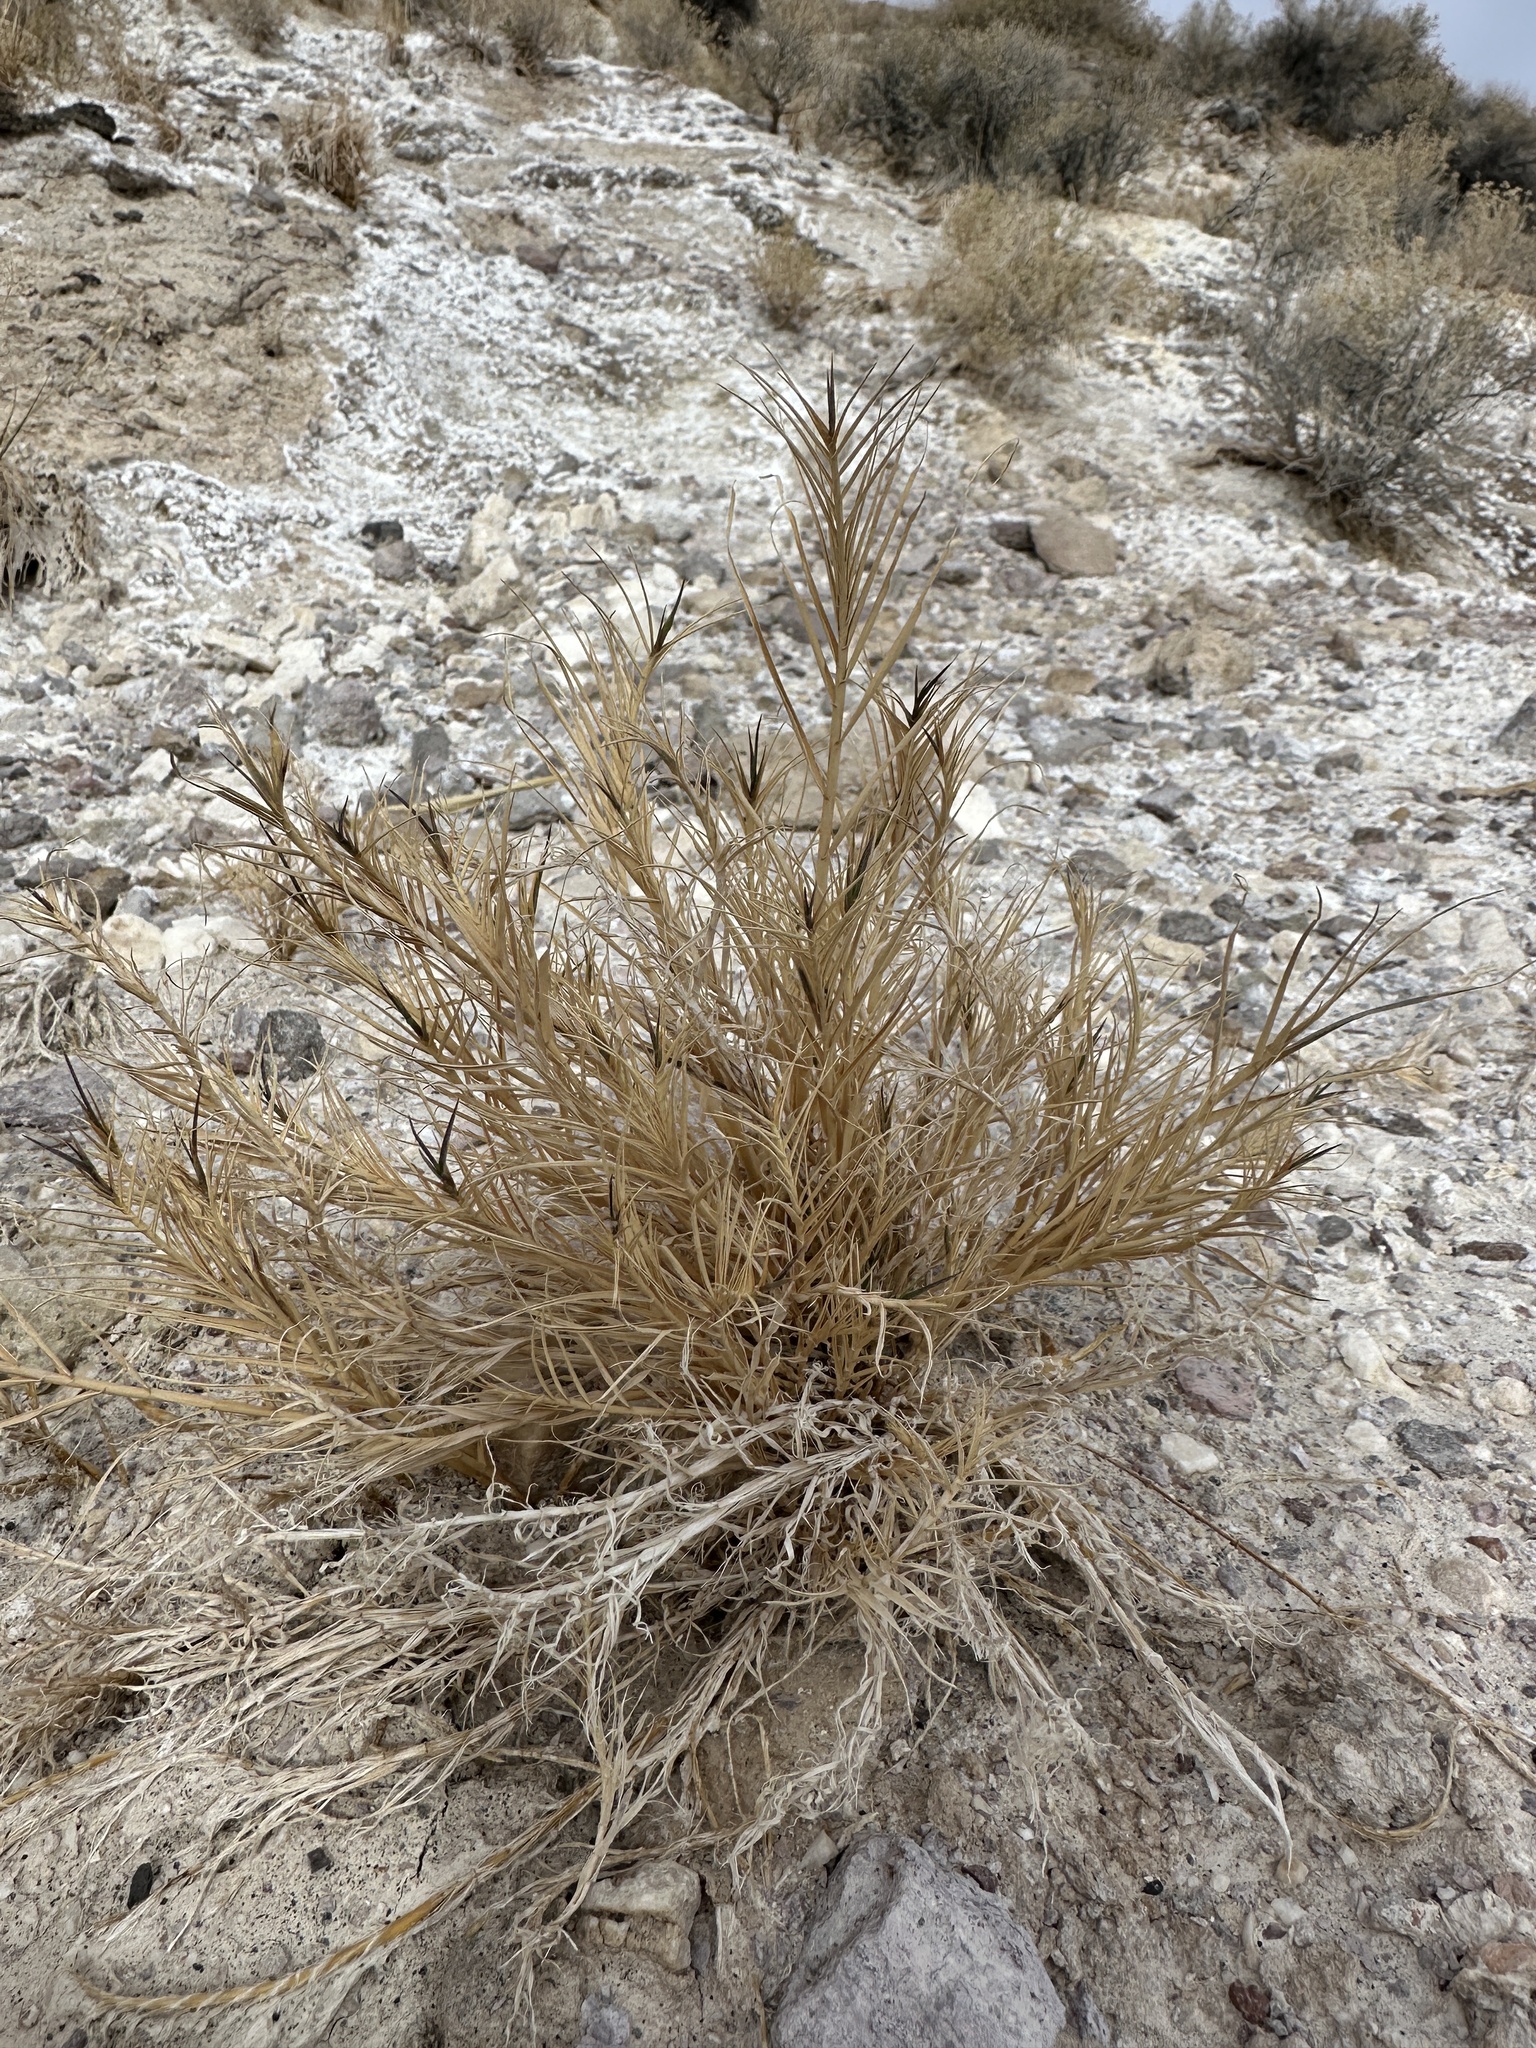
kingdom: Plantae
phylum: Tracheophyta
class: Liliopsida
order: Poales
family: Poaceae
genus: Distichlis
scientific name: Distichlis spicata
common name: Saltgrass
